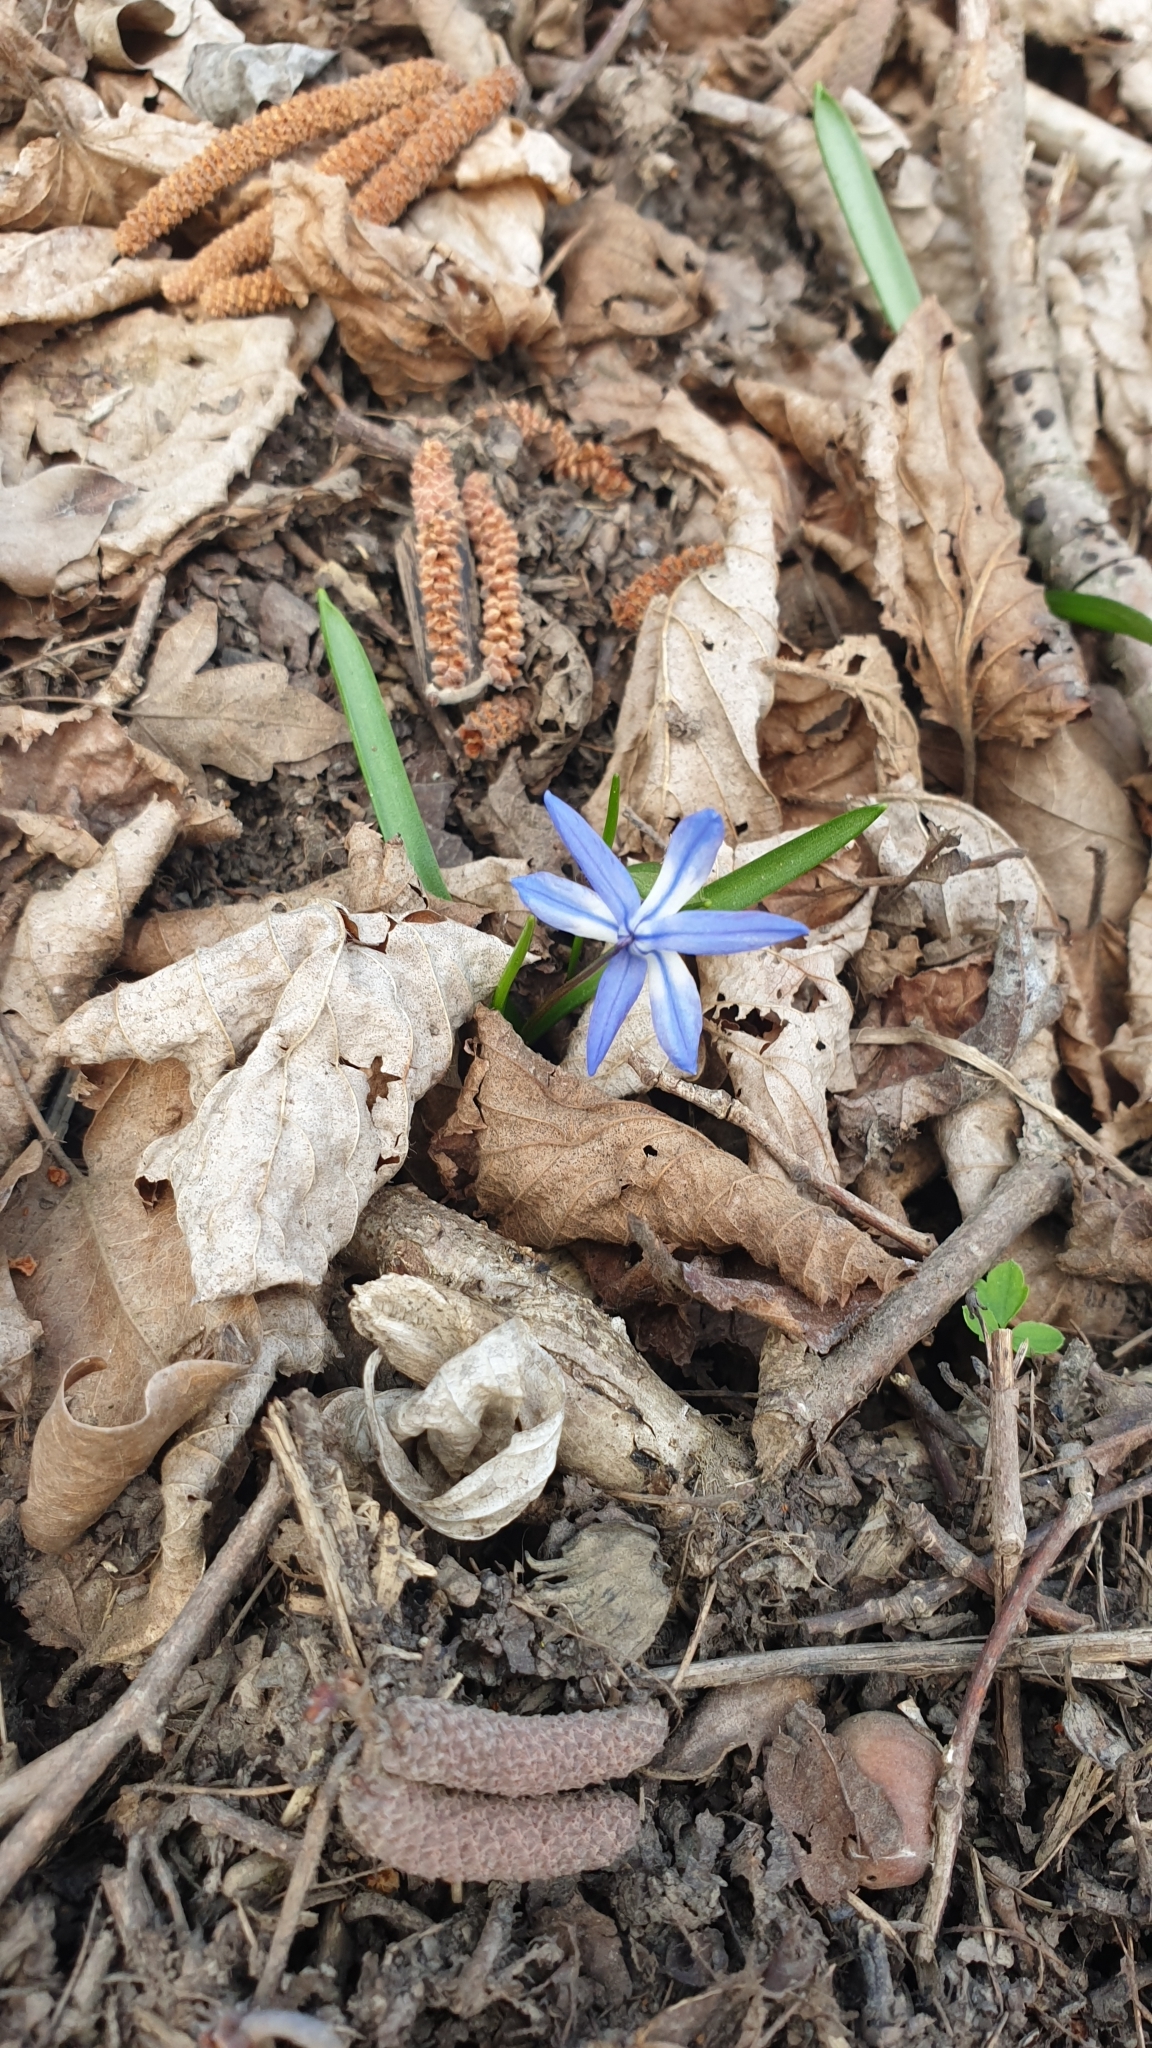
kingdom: Plantae
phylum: Tracheophyta
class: Liliopsida
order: Asparagales
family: Asparagaceae
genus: Scilla
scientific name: Scilla siberica
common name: Siberian squill
